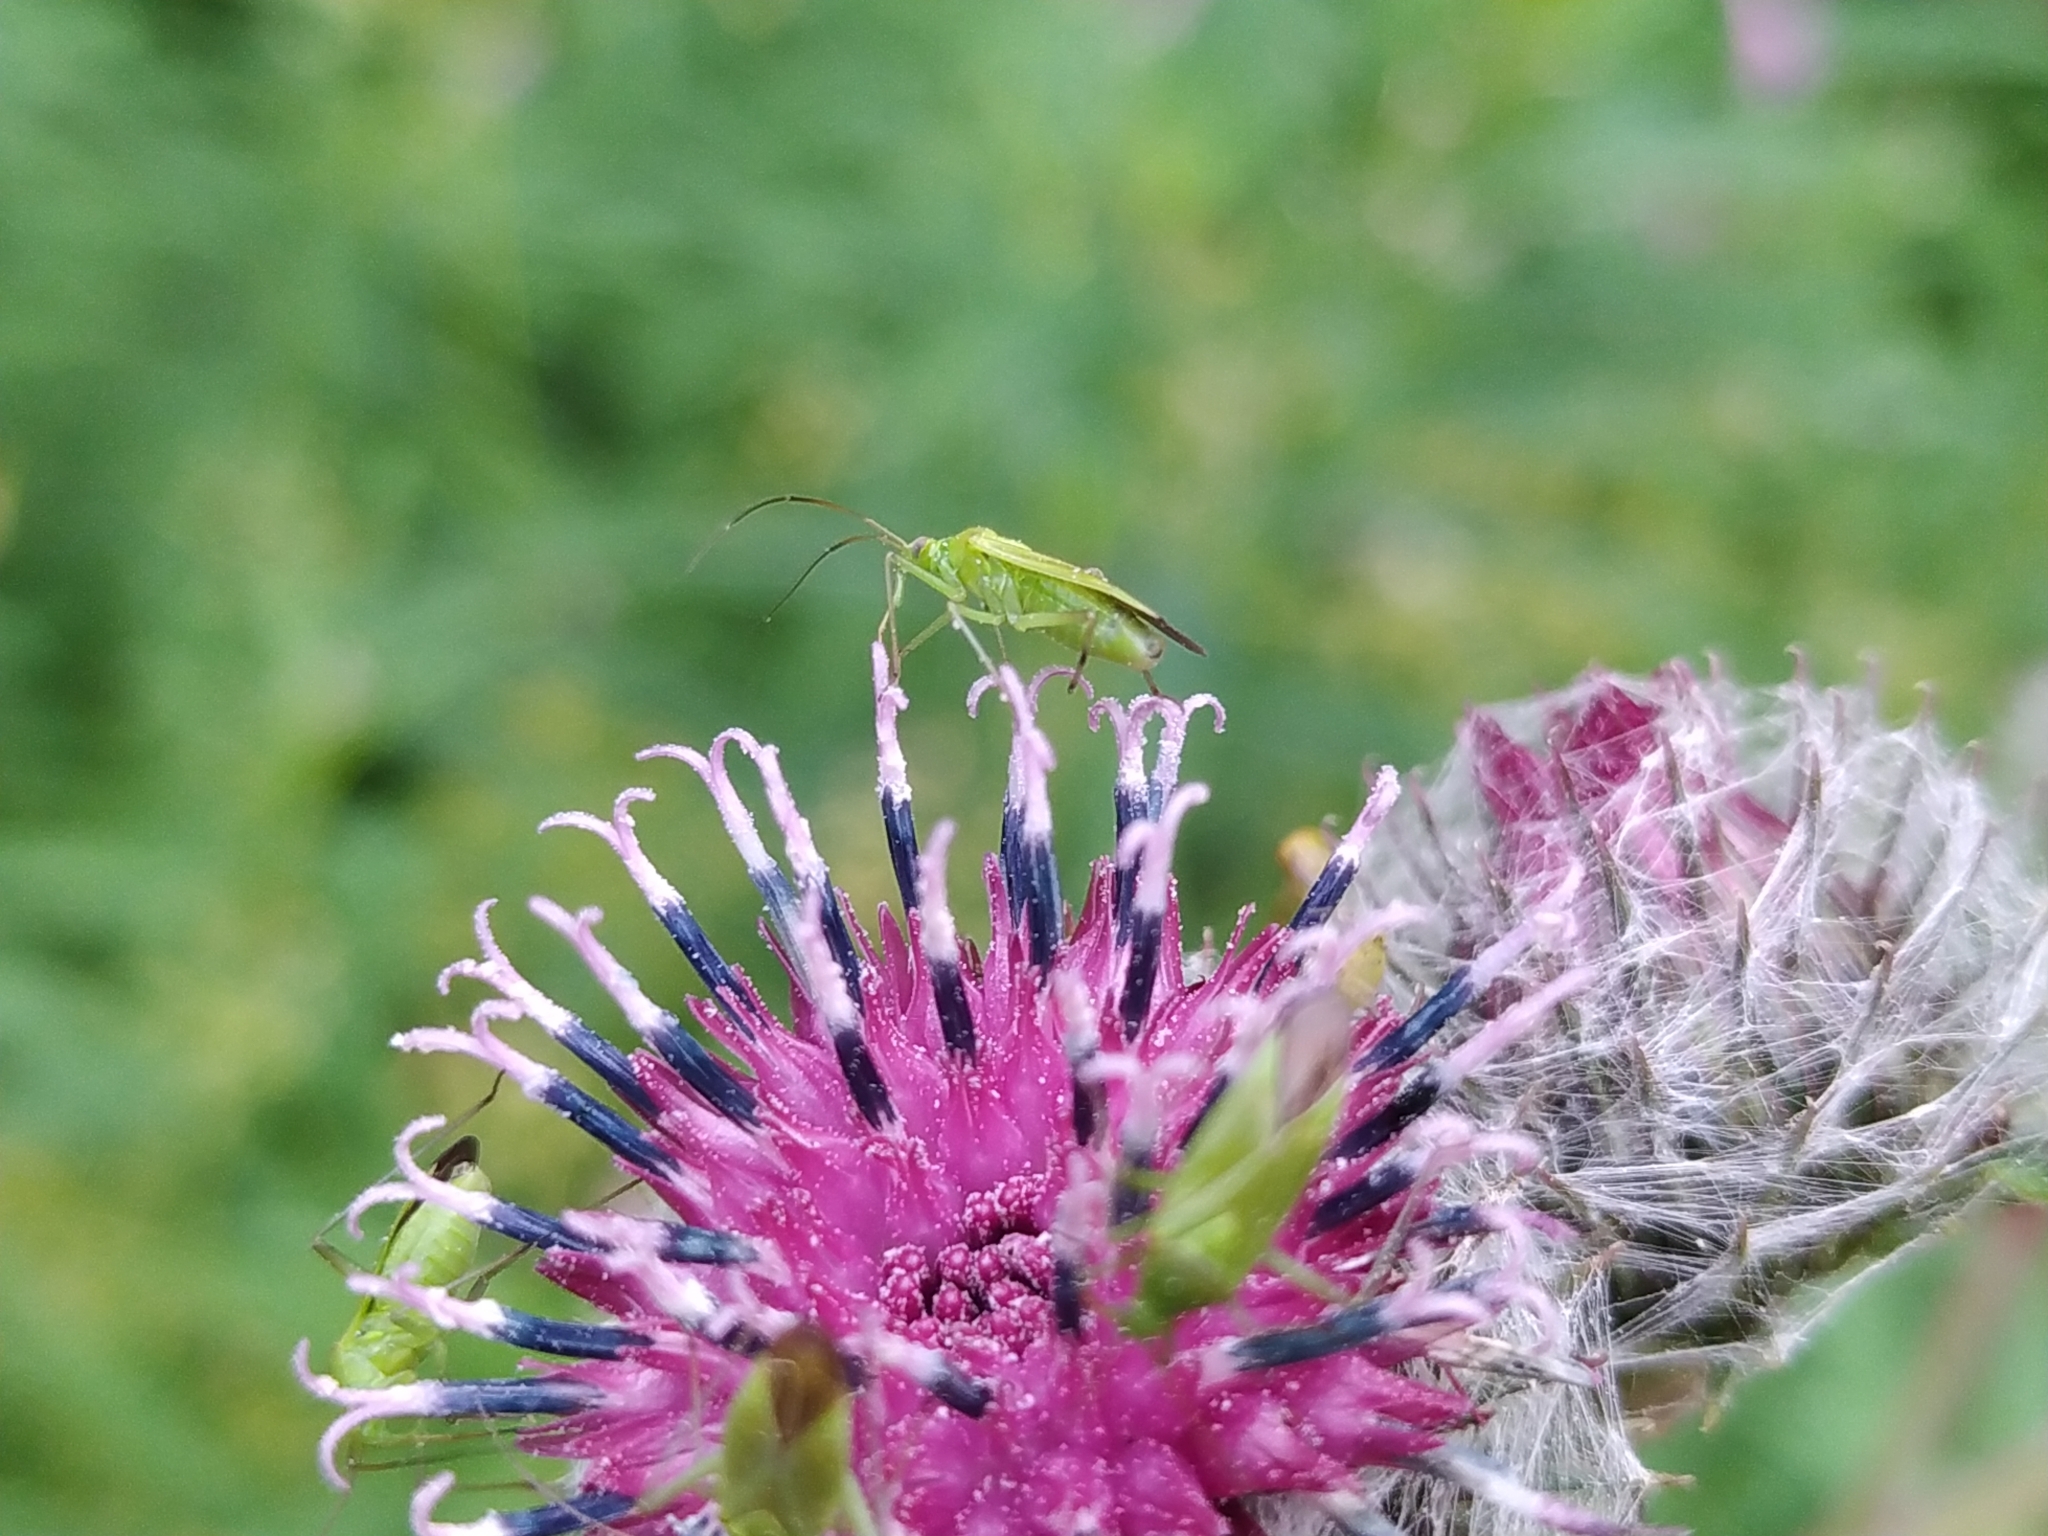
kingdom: Animalia
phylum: Arthropoda
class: Insecta
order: Hemiptera
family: Miridae
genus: Calocoris
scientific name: Calocoris affinis
